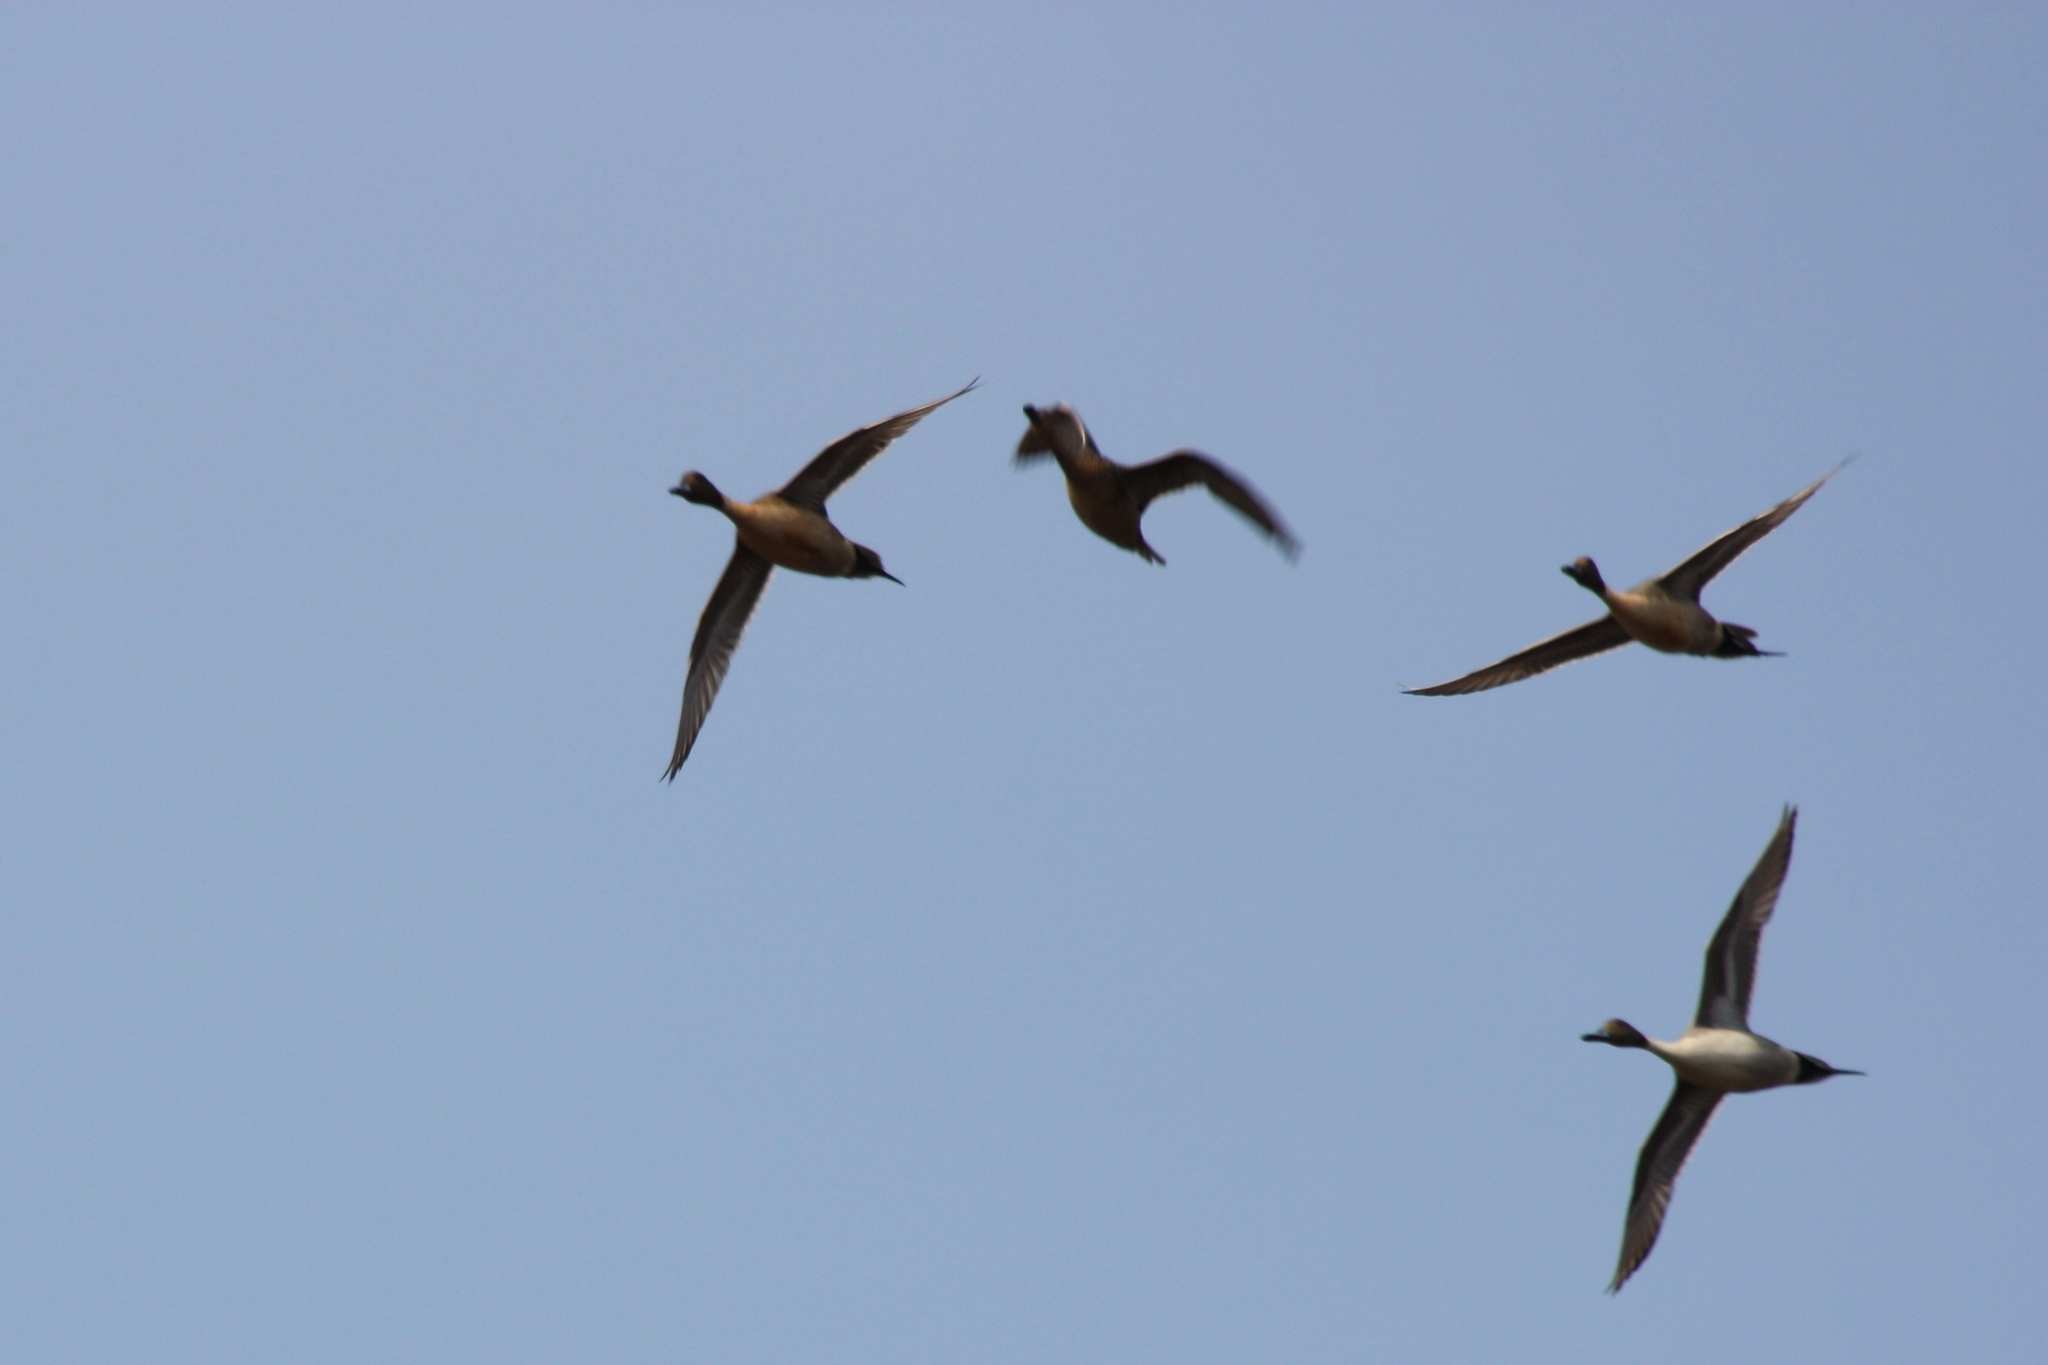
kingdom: Animalia
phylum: Chordata
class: Aves
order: Anseriformes
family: Anatidae
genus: Anas
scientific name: Anas acuta
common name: Northern pintail
